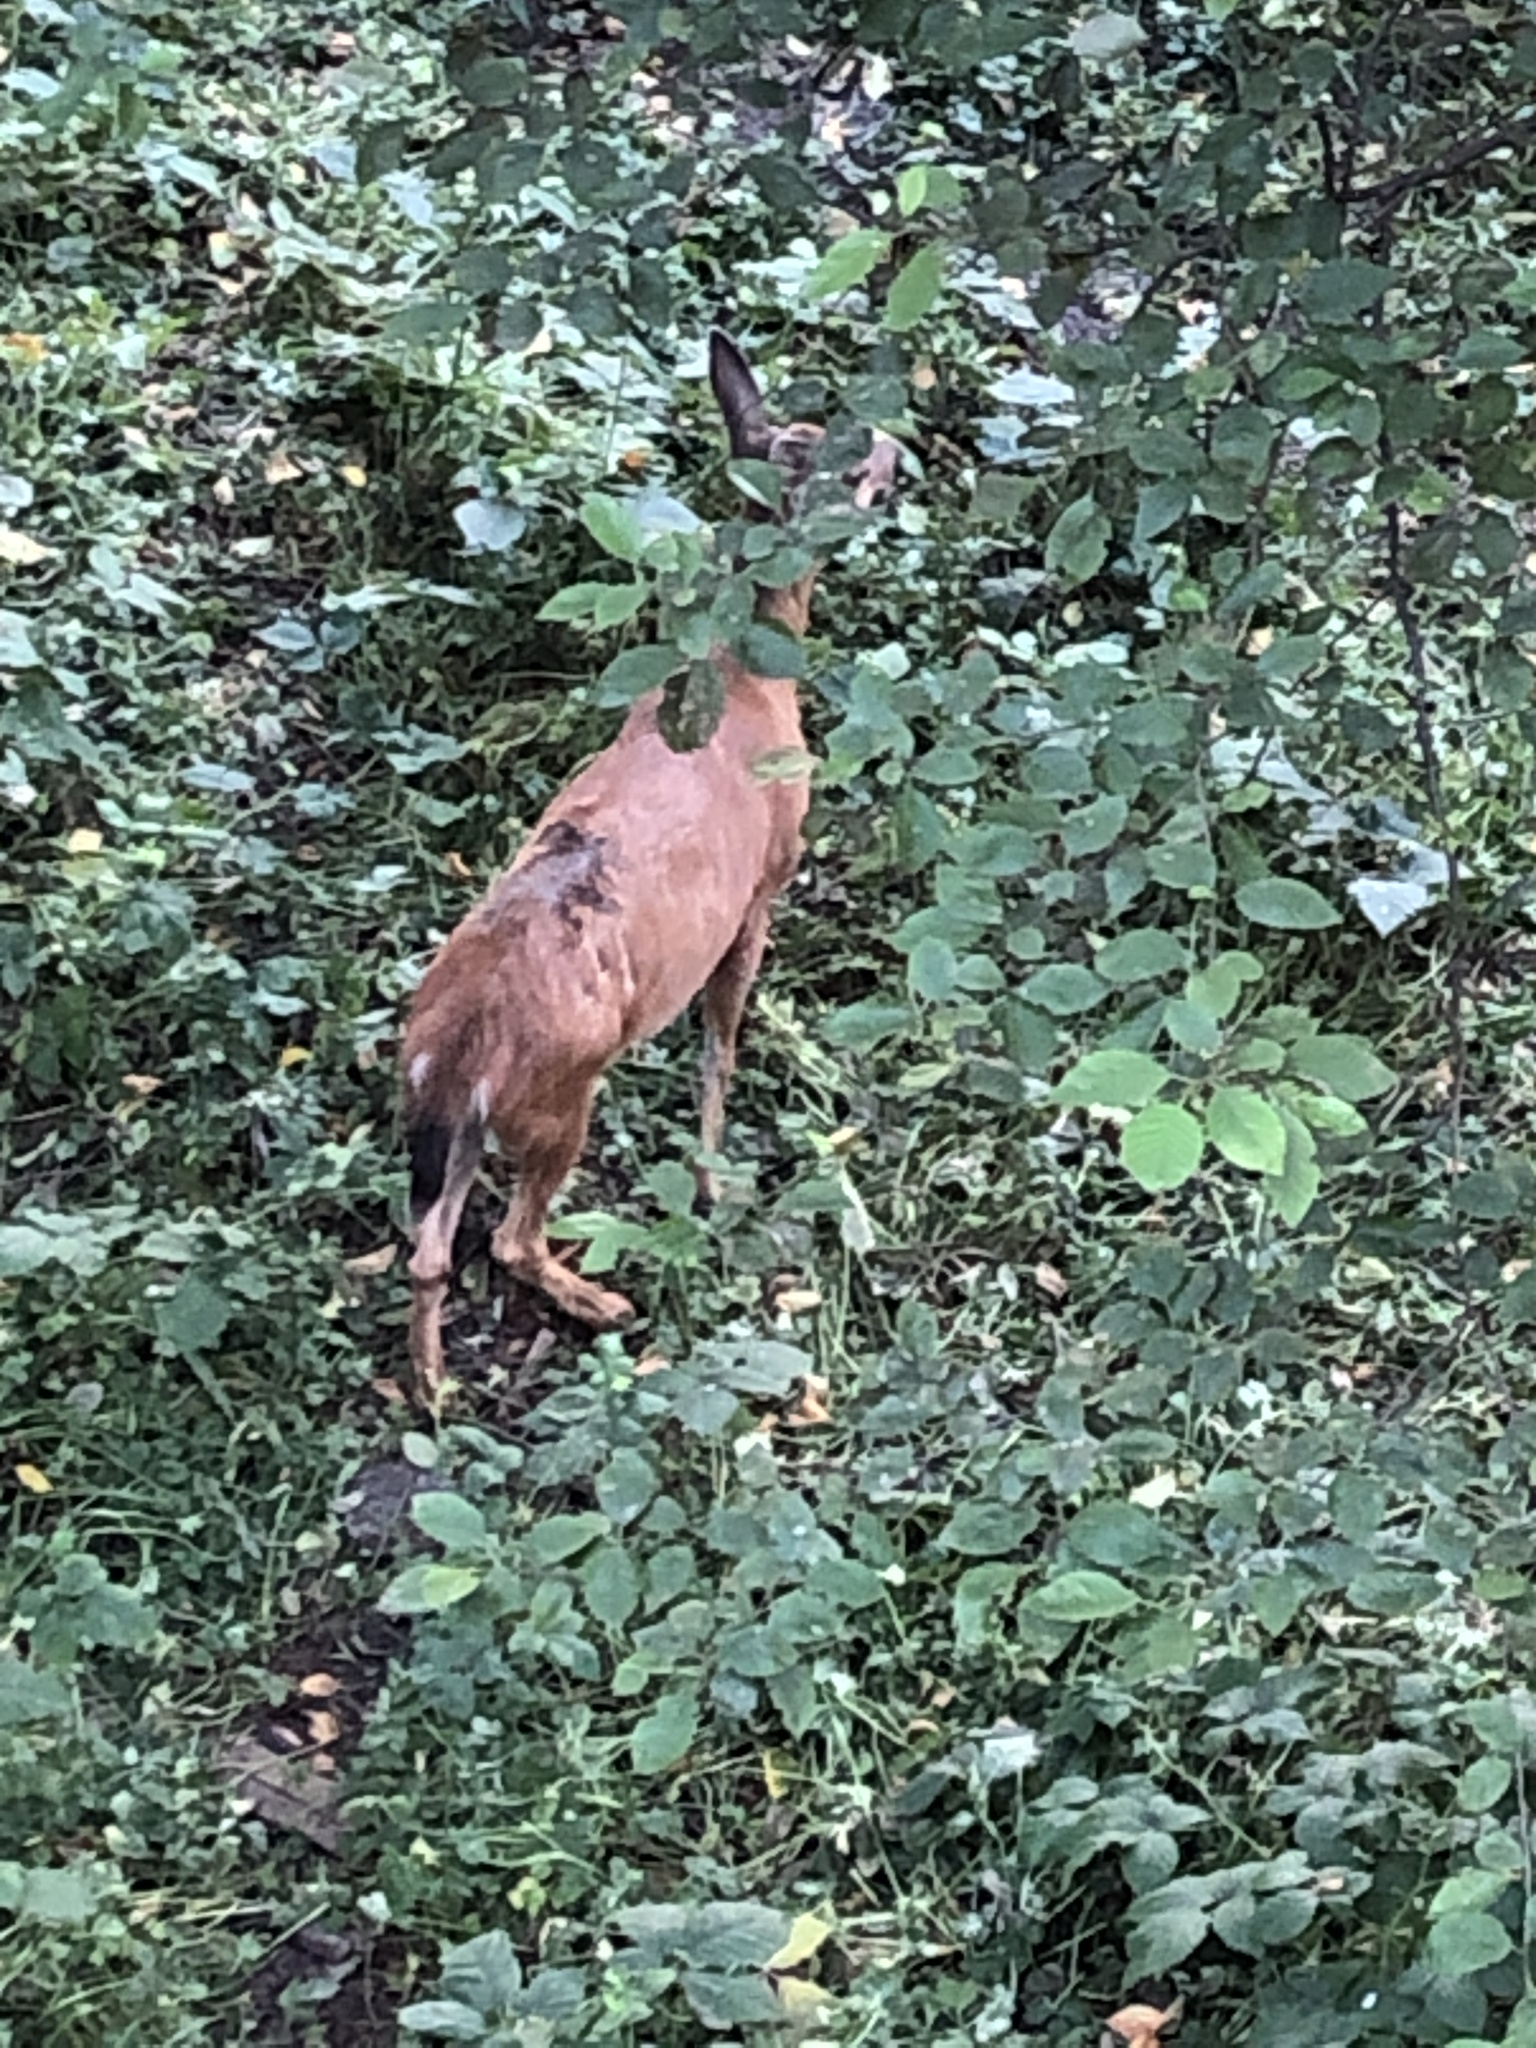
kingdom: Animalia
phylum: Chordata
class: Mammalia
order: Artiodactyla
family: Cervidae
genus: Odocoileus
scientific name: Odocoileus hemionus
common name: Mule deer
